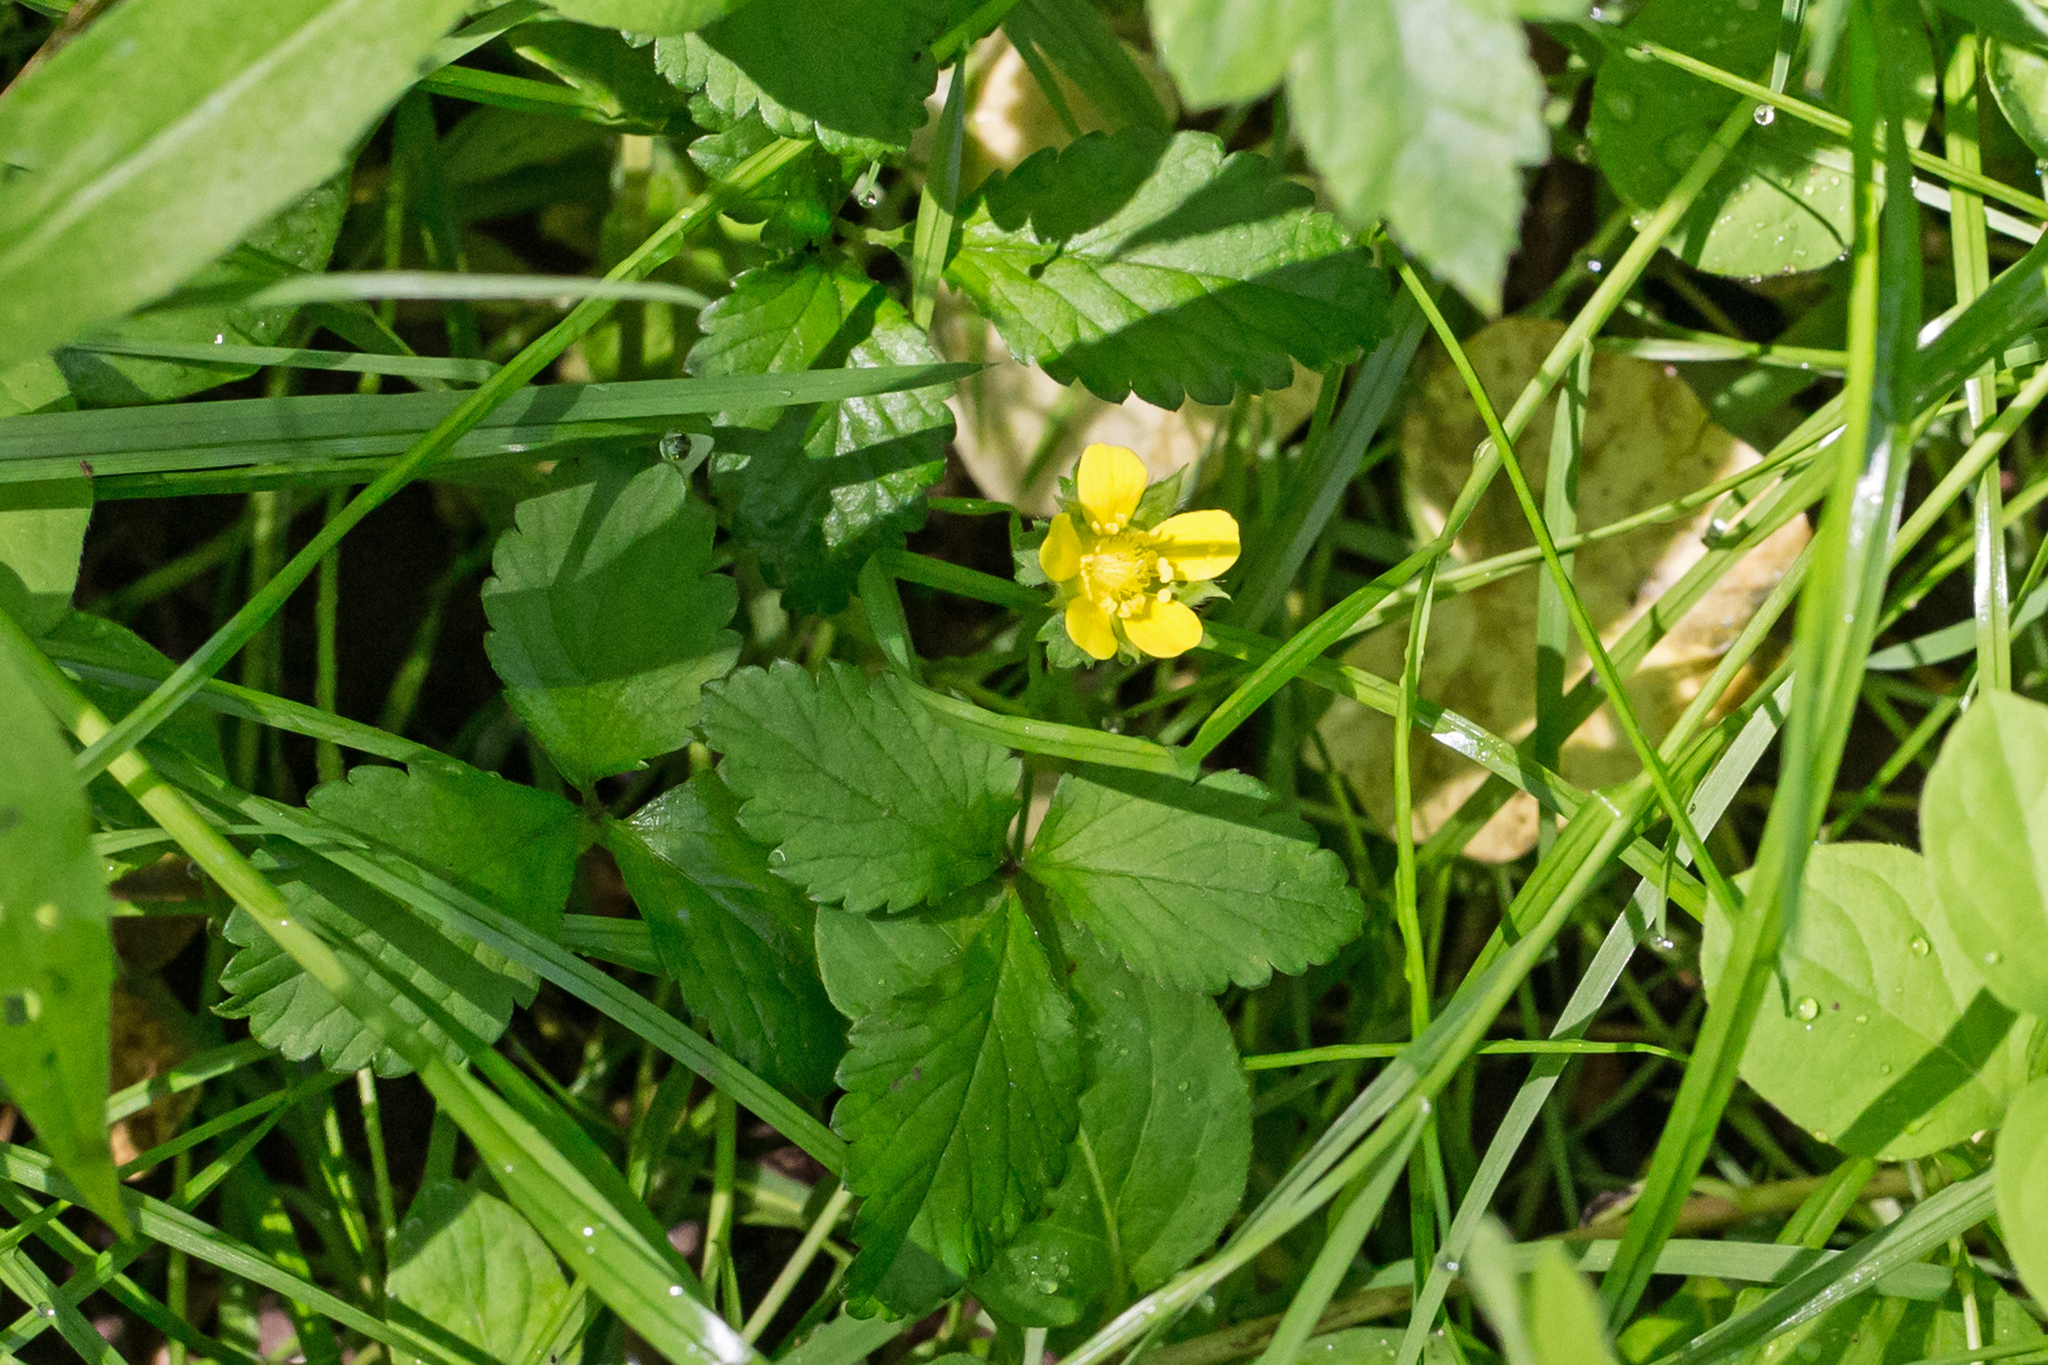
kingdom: Plantae
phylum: Tracheophyta
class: Magnoliopsida
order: Rosales
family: Rosaceae
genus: Potentilla
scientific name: Potentilla indica
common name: Yellow-flowered strawberry
